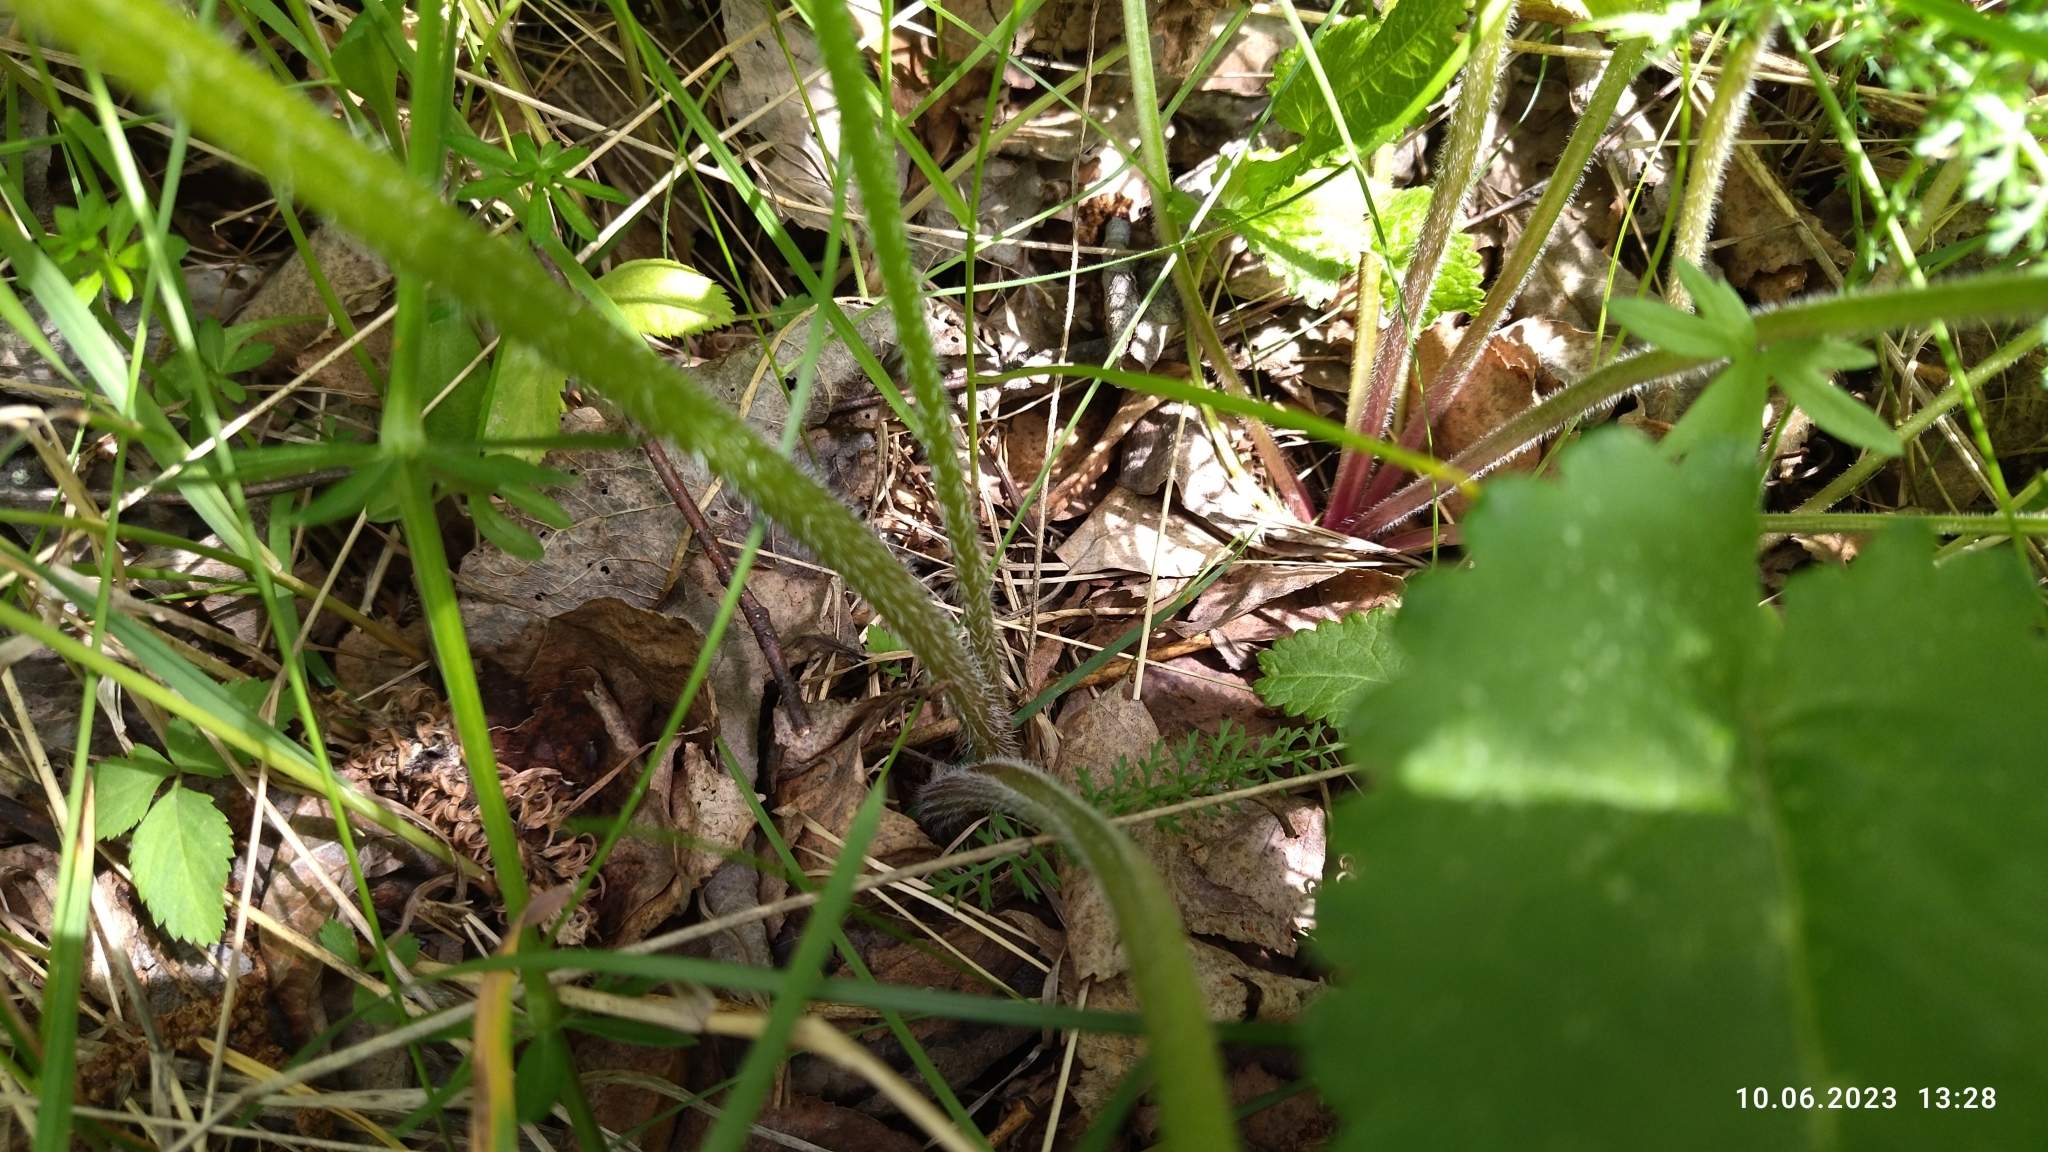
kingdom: Plantae
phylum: Tracheophyta
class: Magnoliopsida
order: Apiales
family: Apiaceae
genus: Heracleum
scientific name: Heracleum sphondylium
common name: Hogweed
